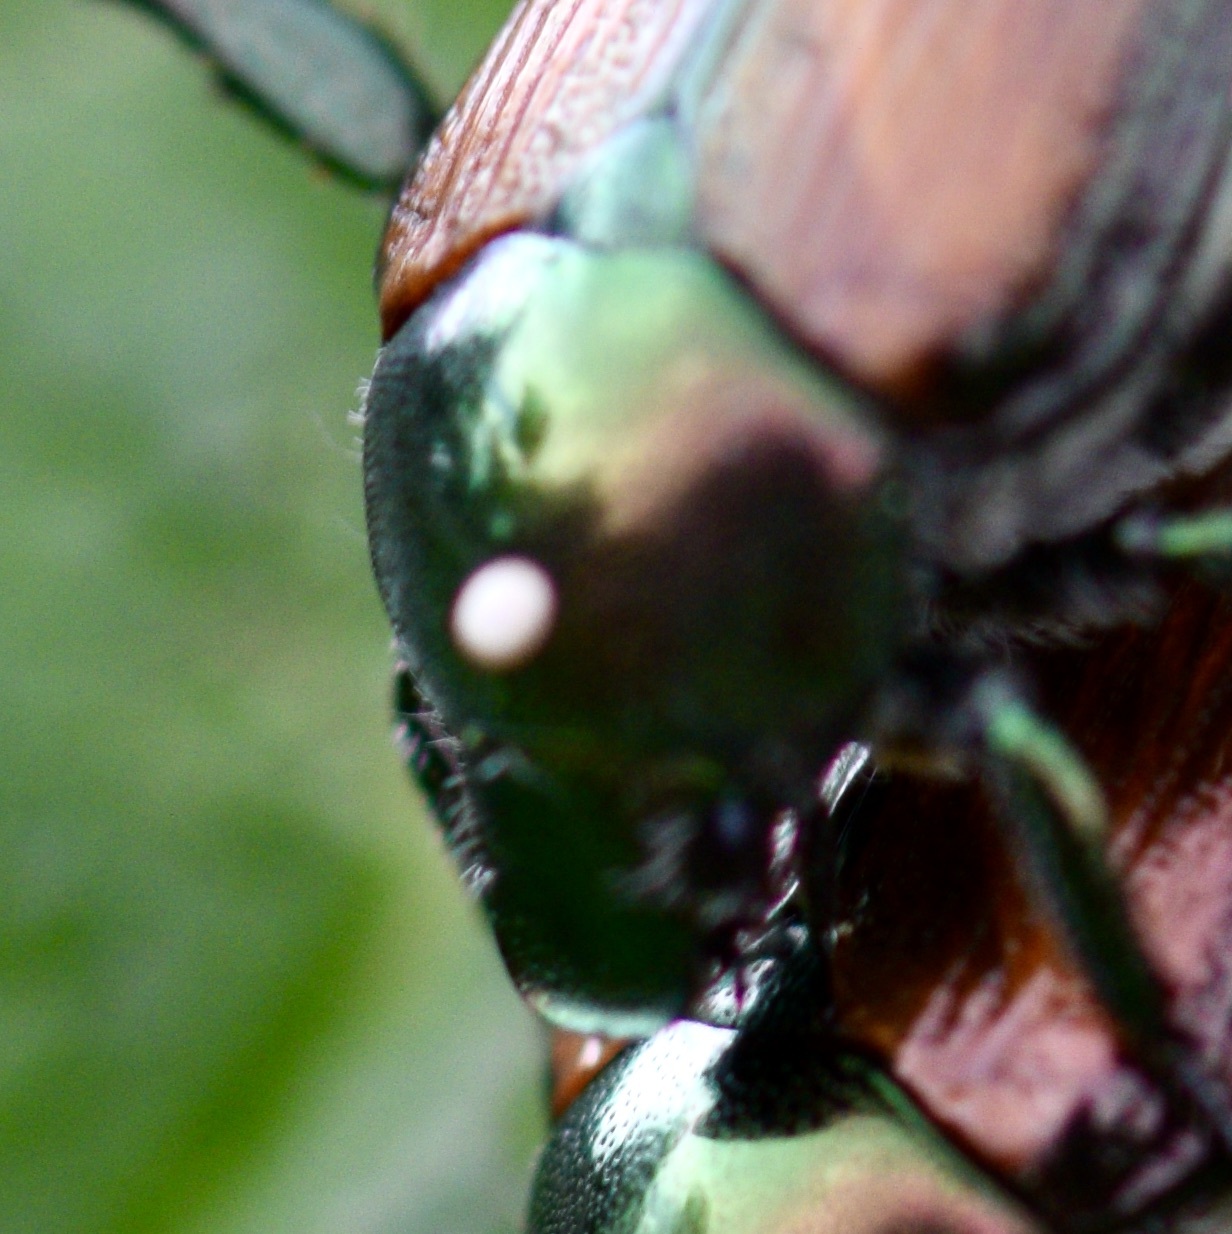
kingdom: Animalia
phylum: Arthropoda
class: Insecta
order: Diptera
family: Tachinidae
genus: Istocheta
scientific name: Istocheta aldrichi
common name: Parasitic wasp
